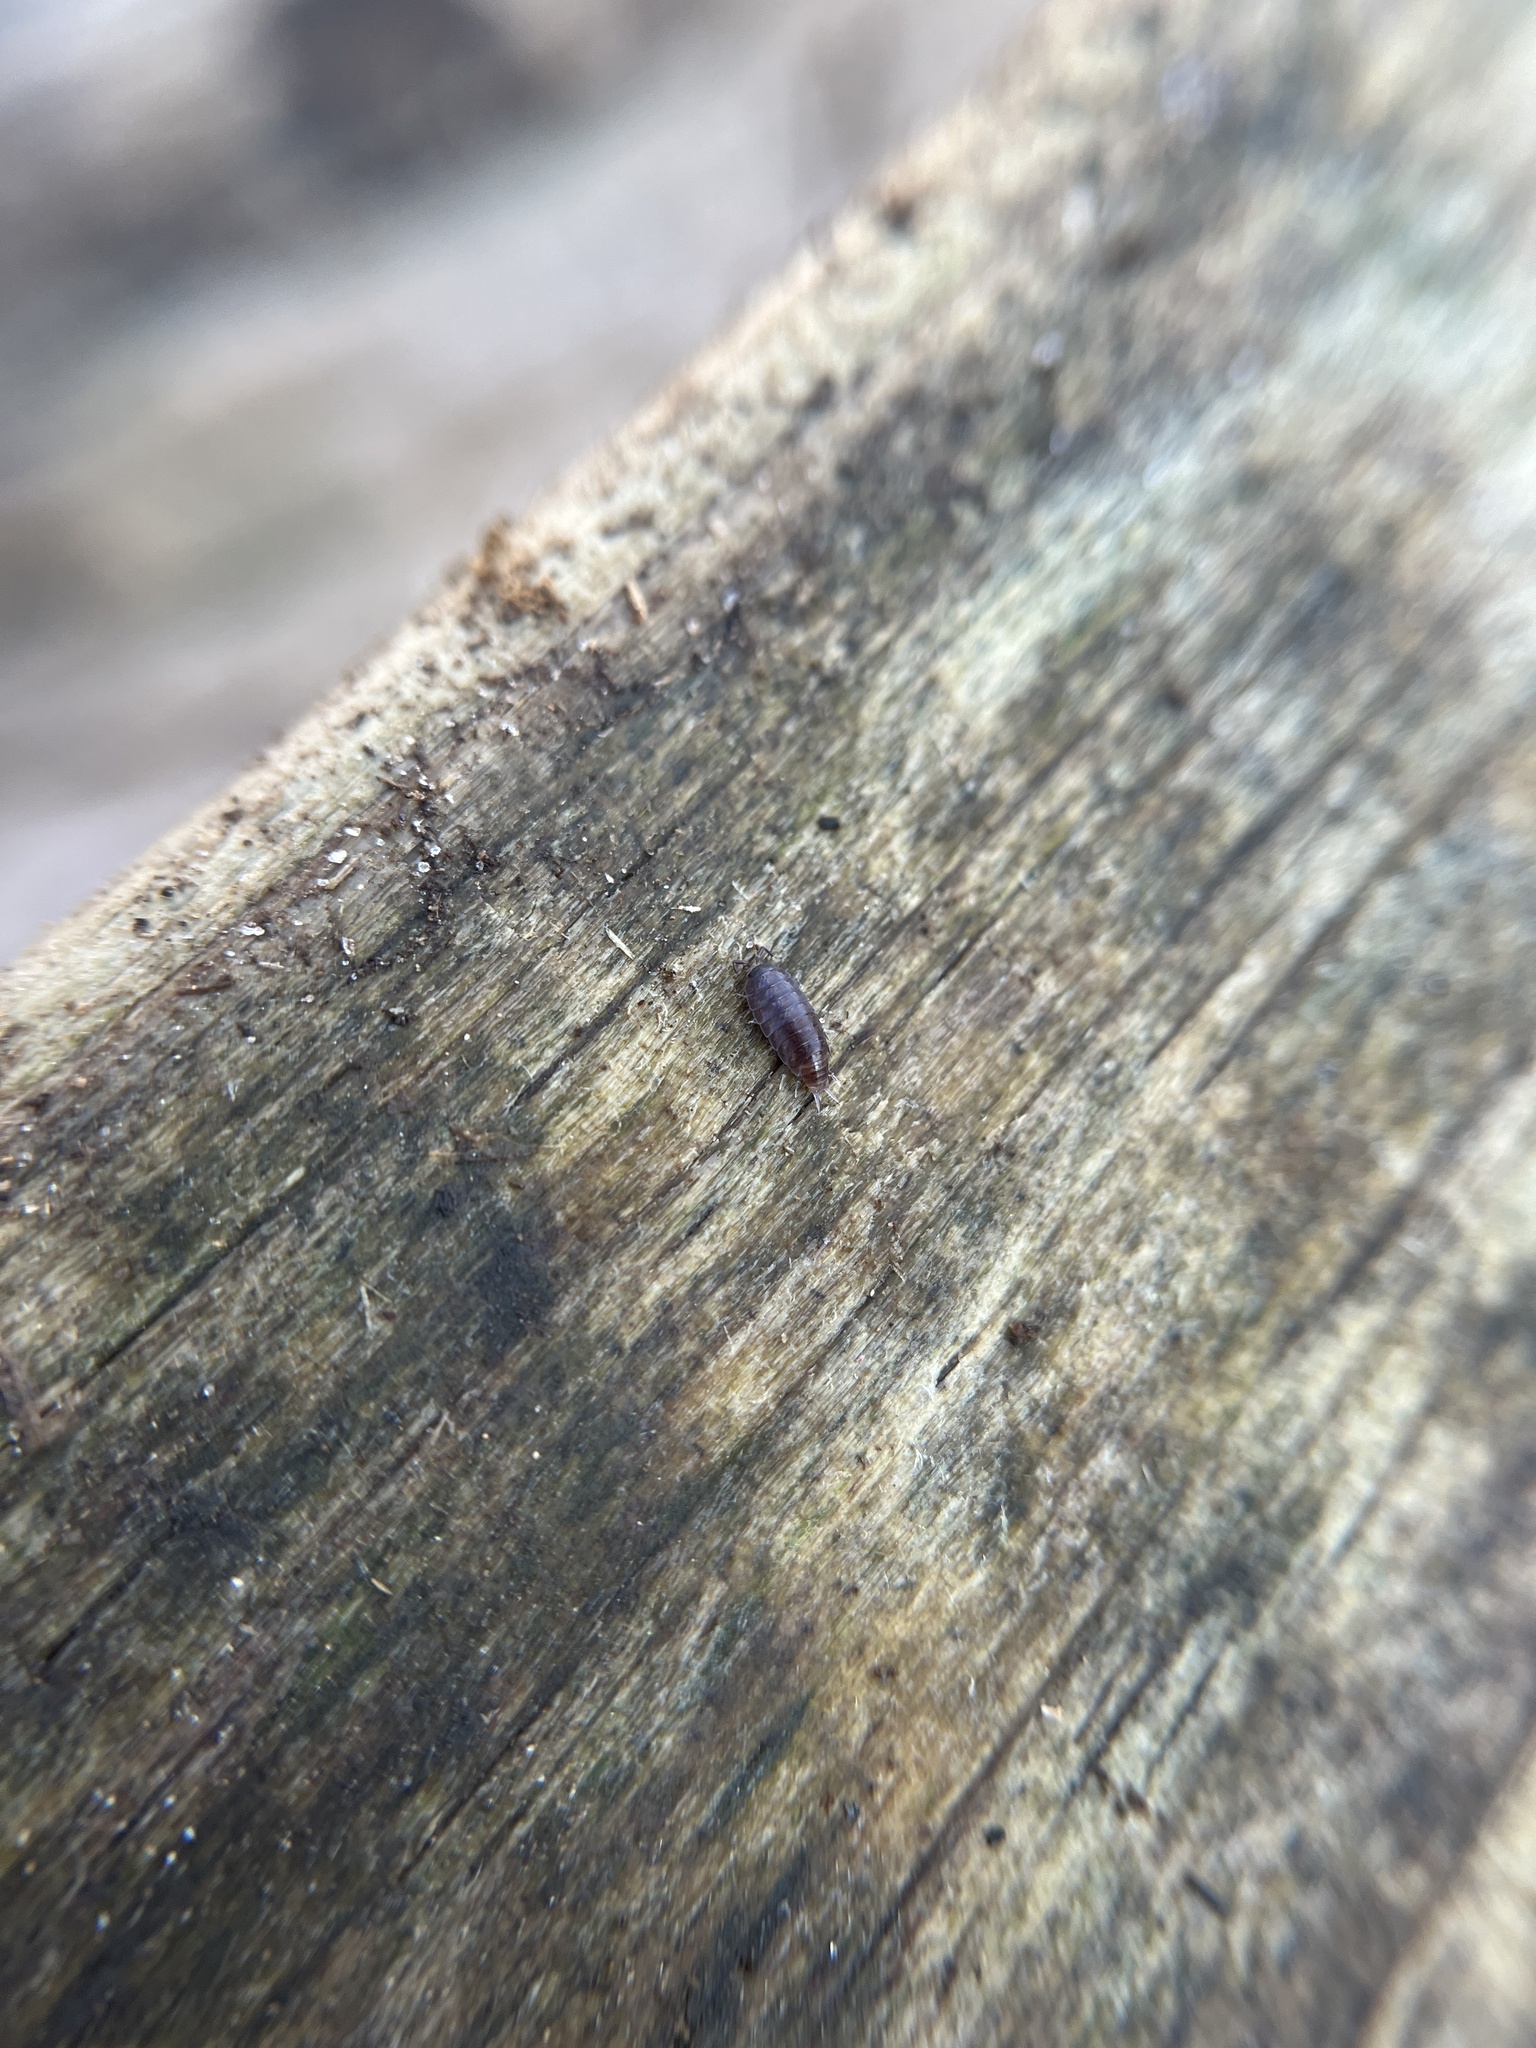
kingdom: Animalia
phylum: Arthropoda
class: Malacostraca
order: Isopoda
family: Trichoniscidae
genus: Hyloniscus
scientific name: Hyloniscus riparius
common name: Isopod
